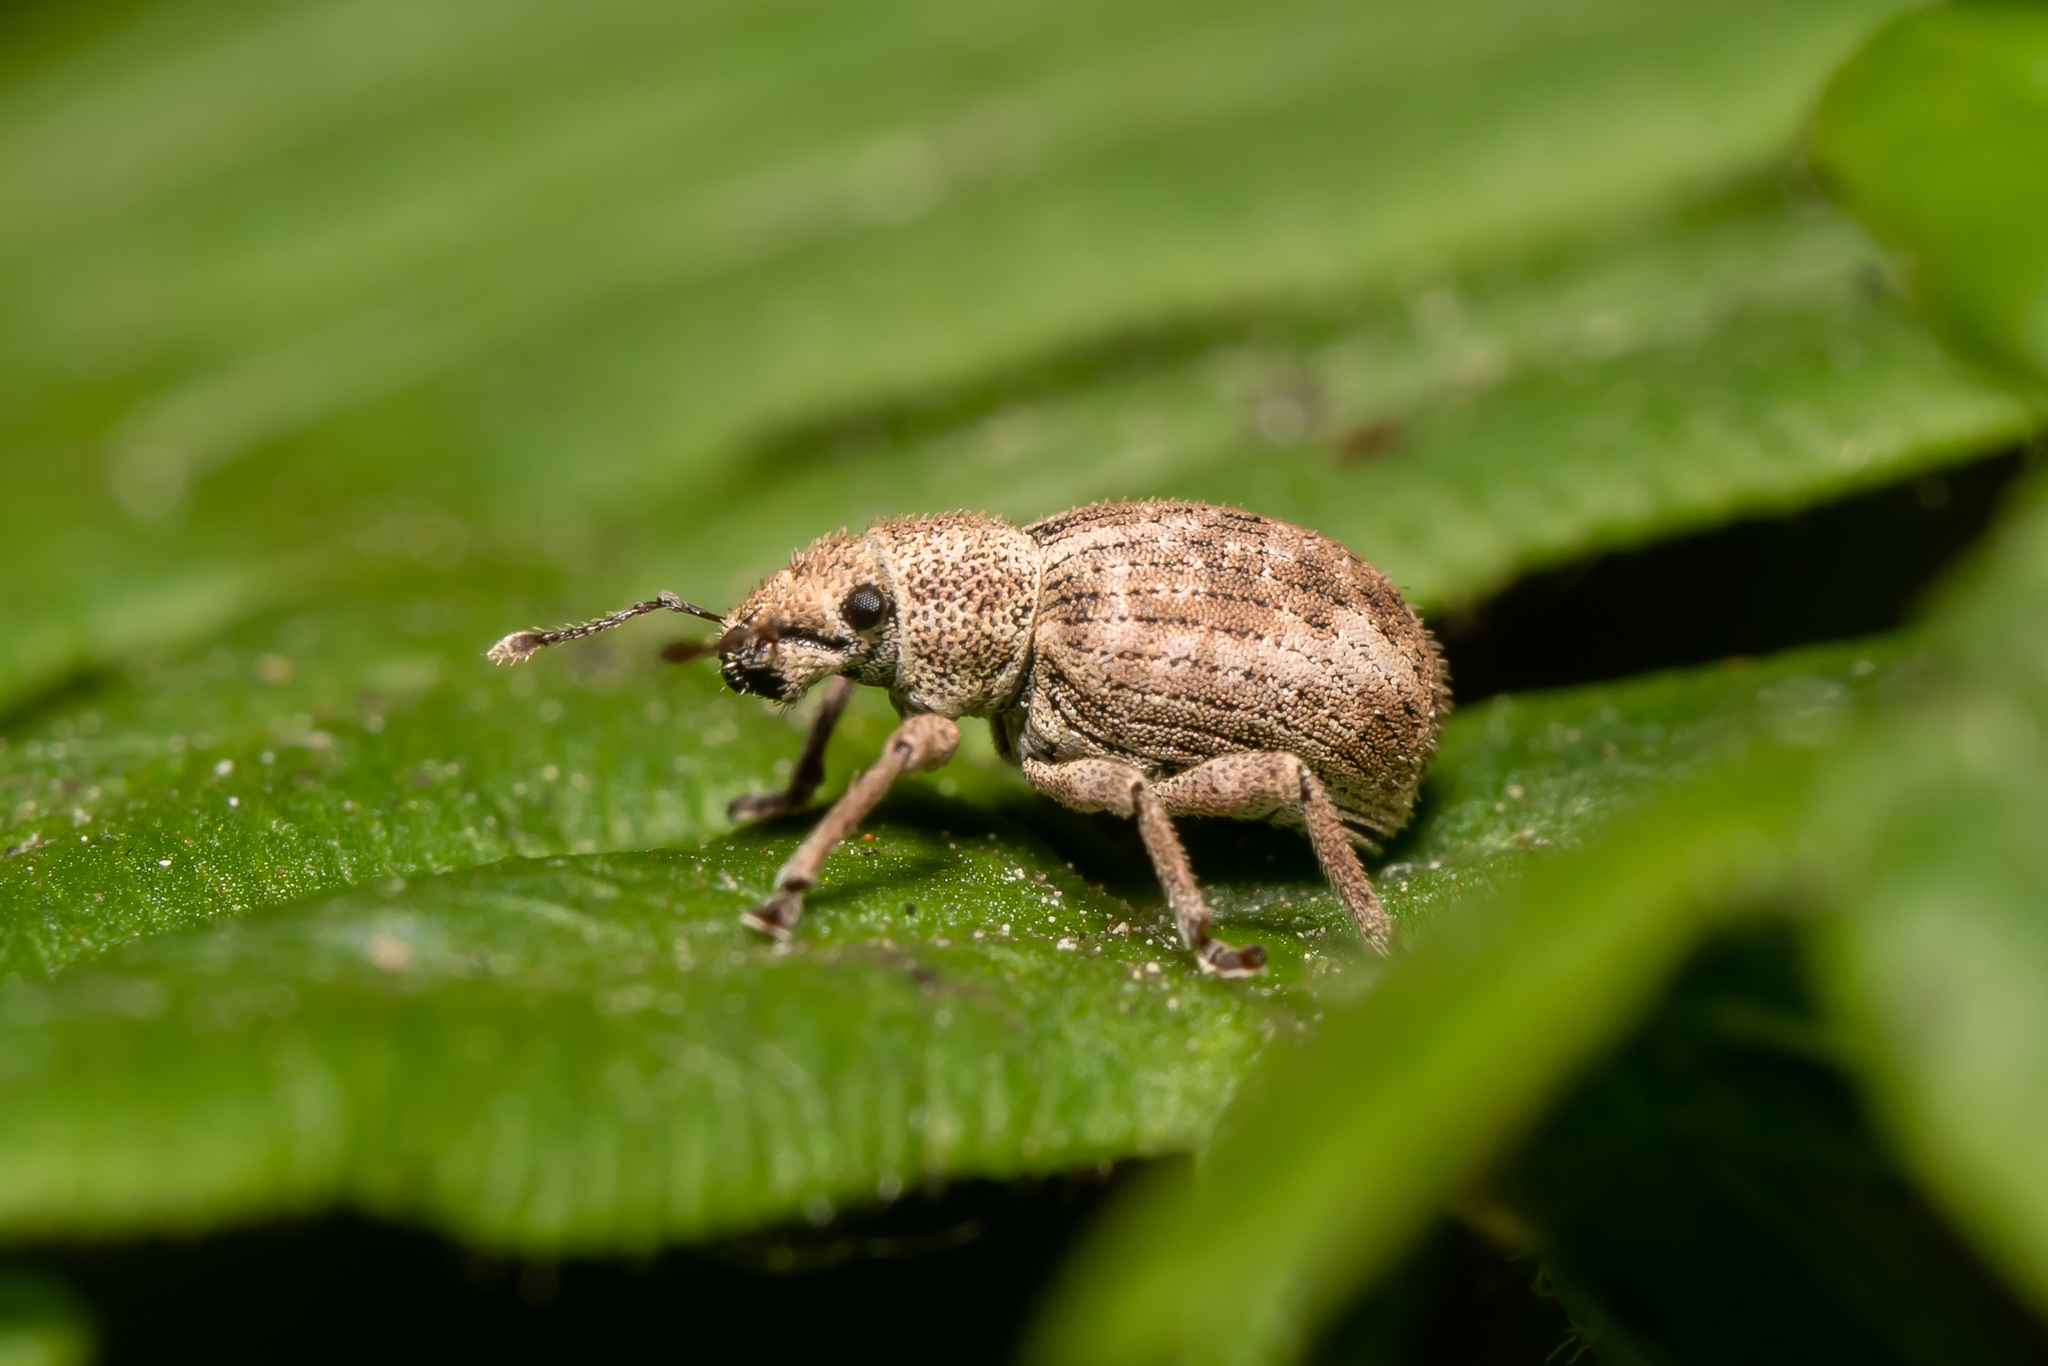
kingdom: Animalia
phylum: Arthropoda
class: Insecta
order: Coleoptera
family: Curculionidae
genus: Strophosoma
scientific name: Strophosoma capitatum
